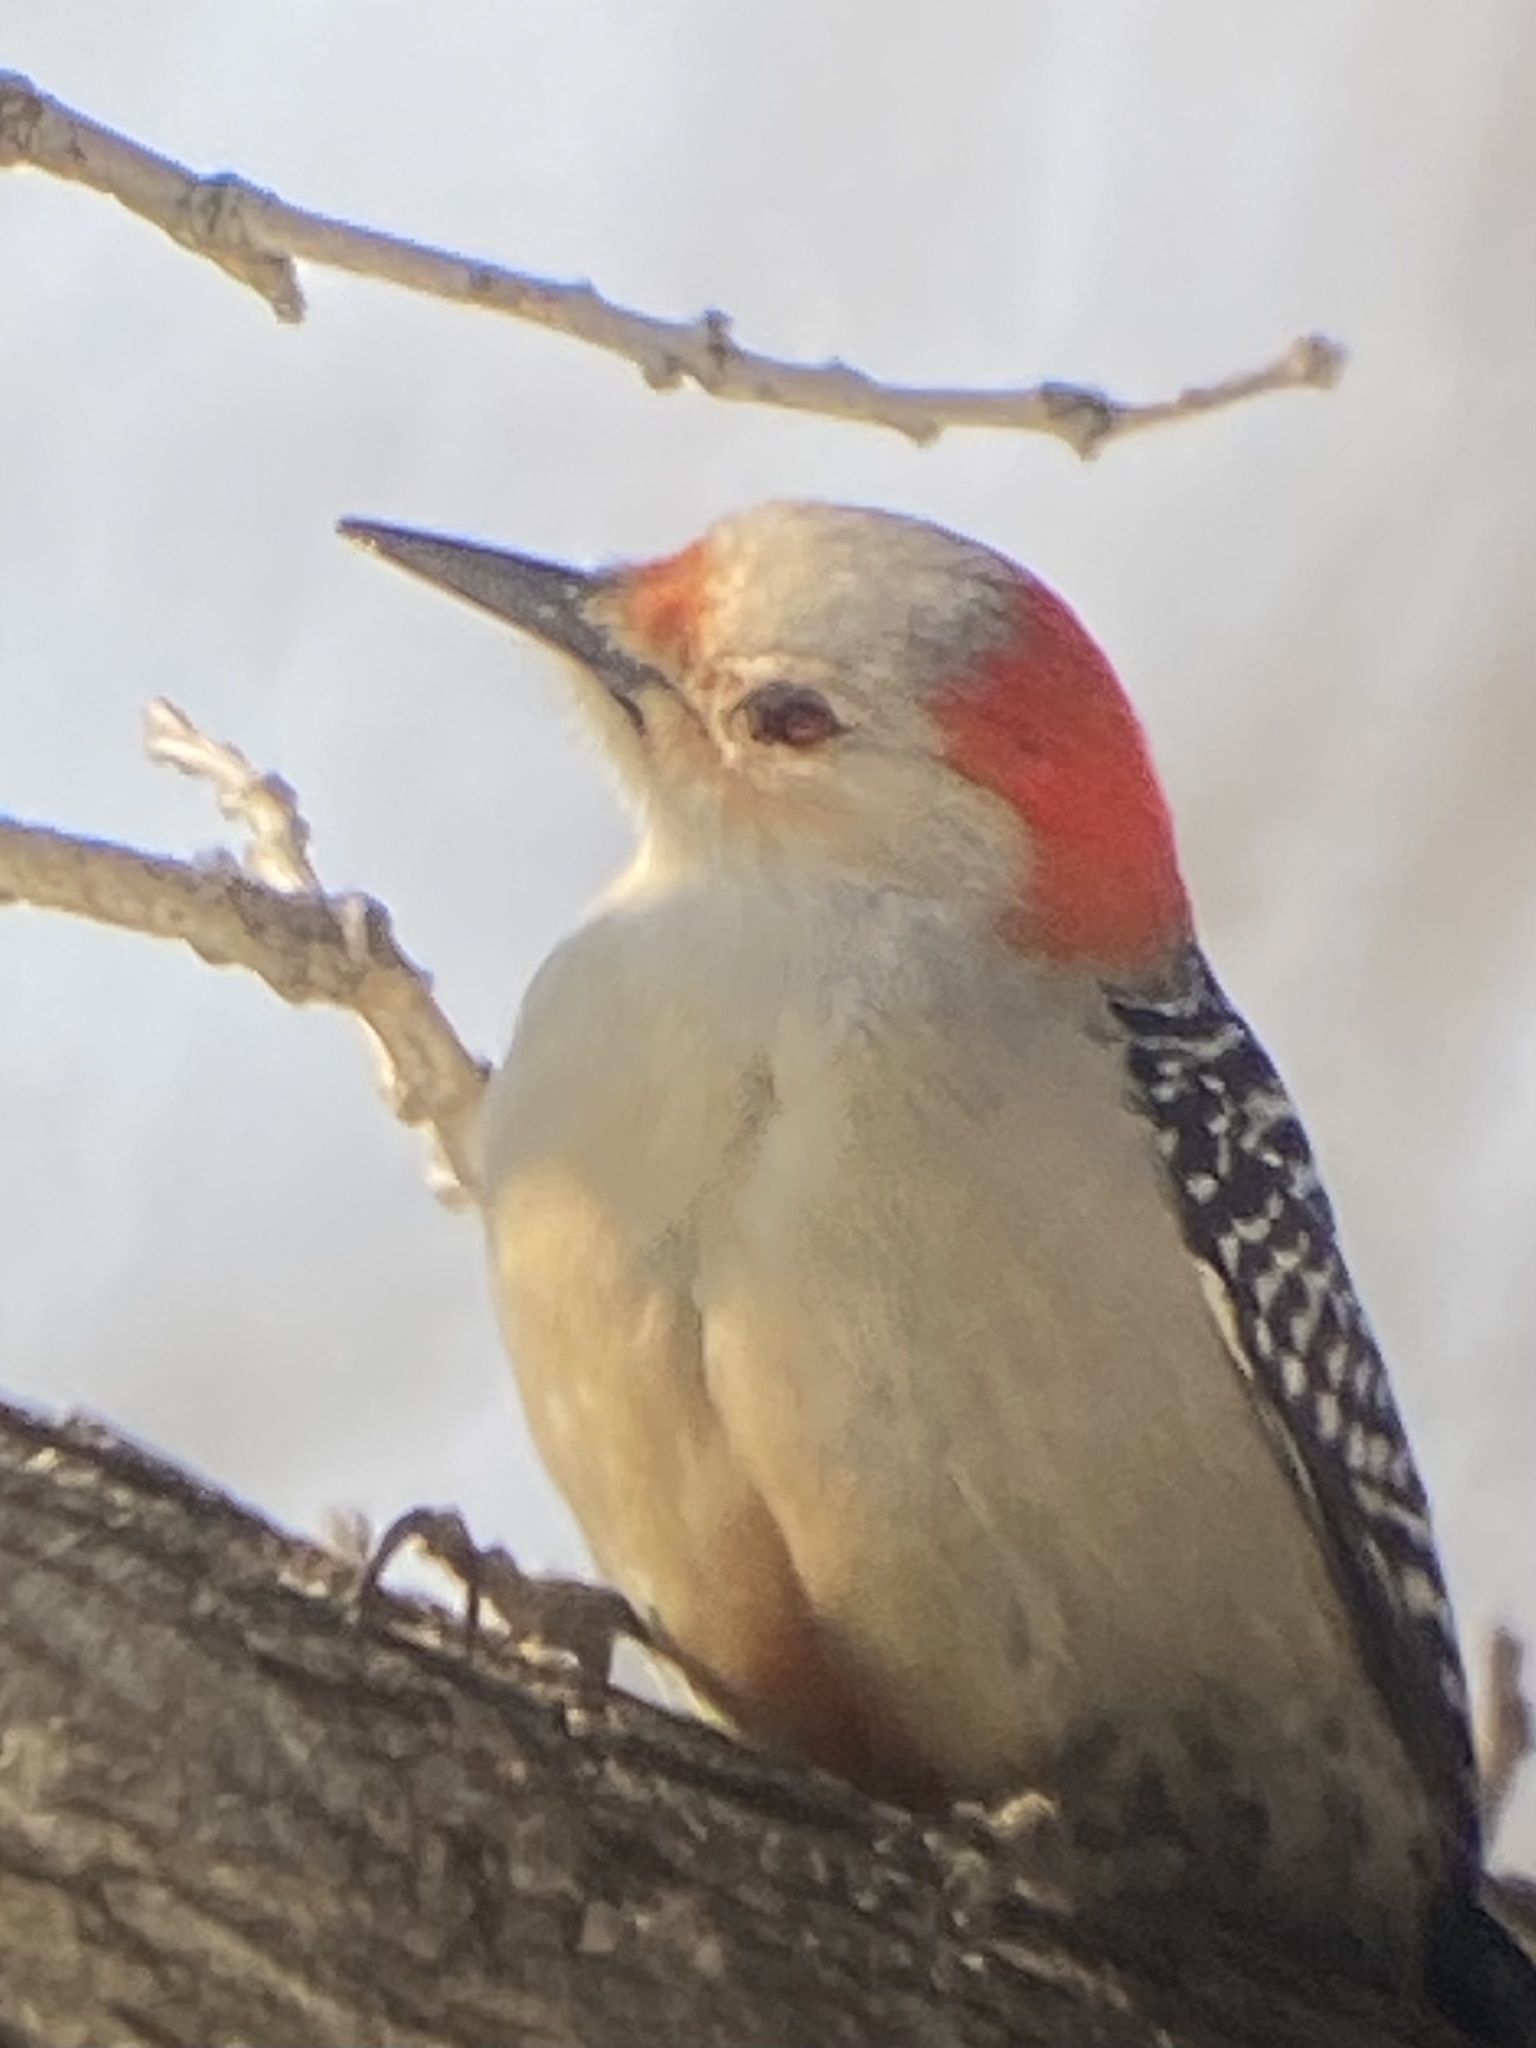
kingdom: Animalia
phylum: Chordata
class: Aves
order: Piciformes
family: Picidae
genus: Melanerpes
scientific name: Melanerpes carolinus
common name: Red-bellied woodpecker
